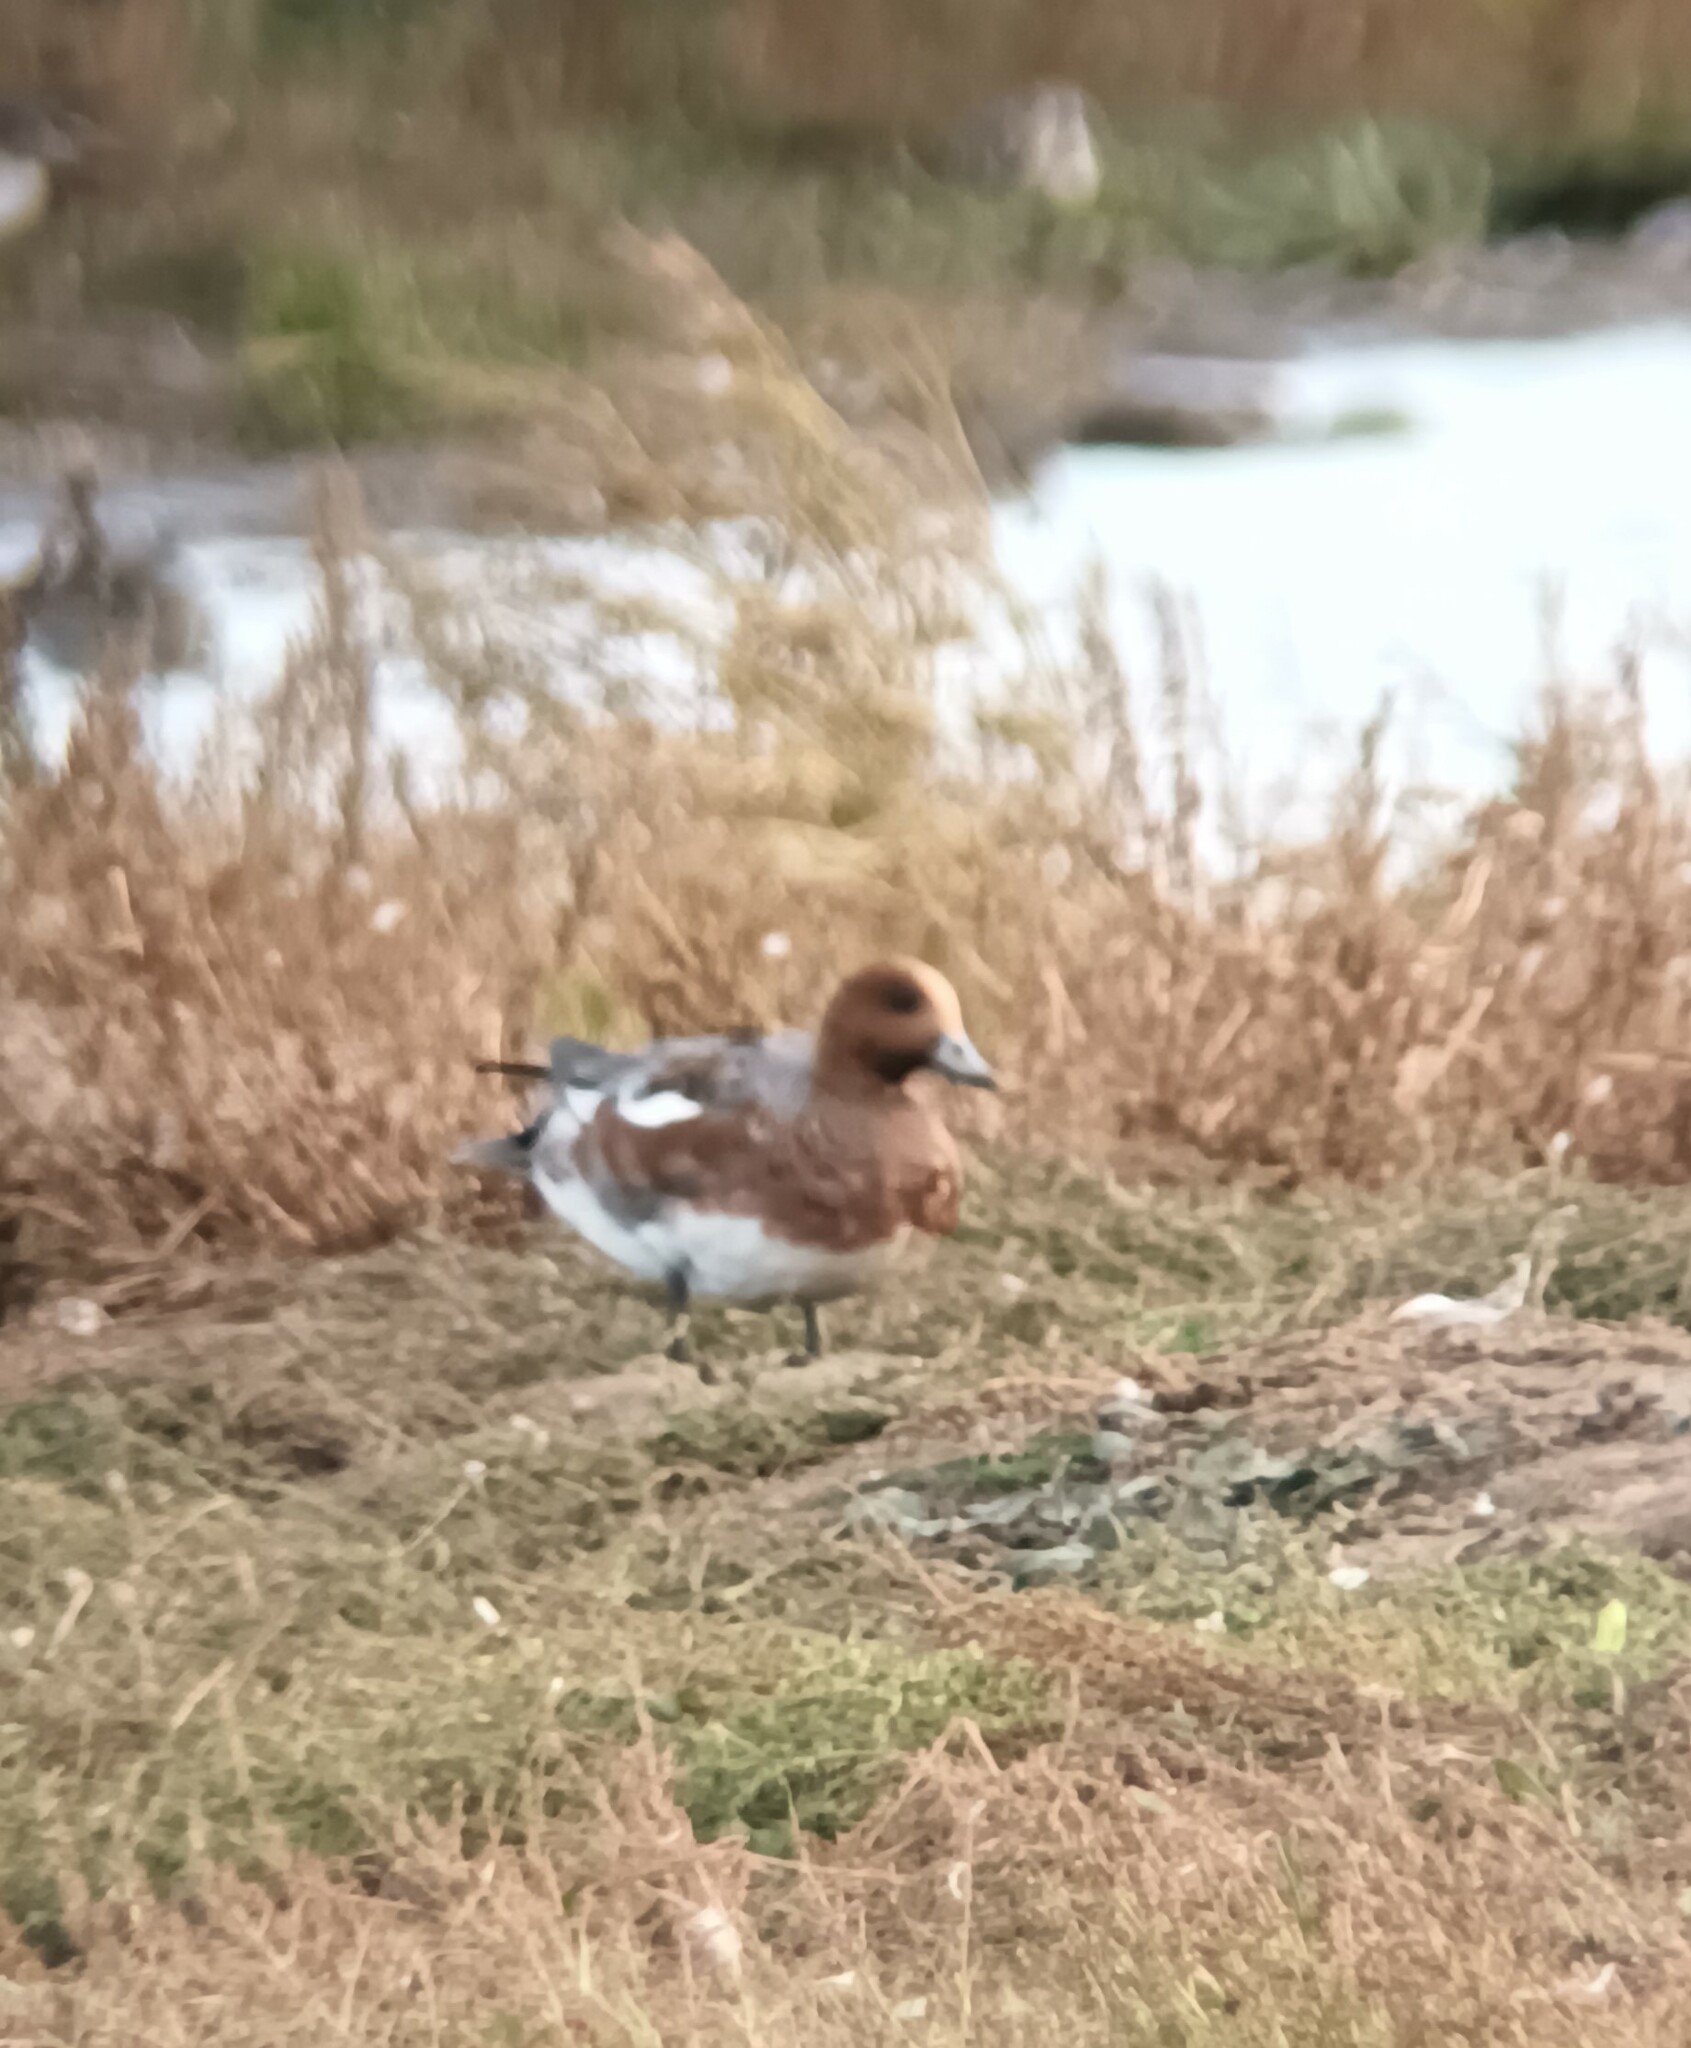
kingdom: Animalia
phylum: Chordata
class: Aves
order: Anseriformes
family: Anatidae
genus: Mareca
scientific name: Mareca penelope
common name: Eurasian wigeon
